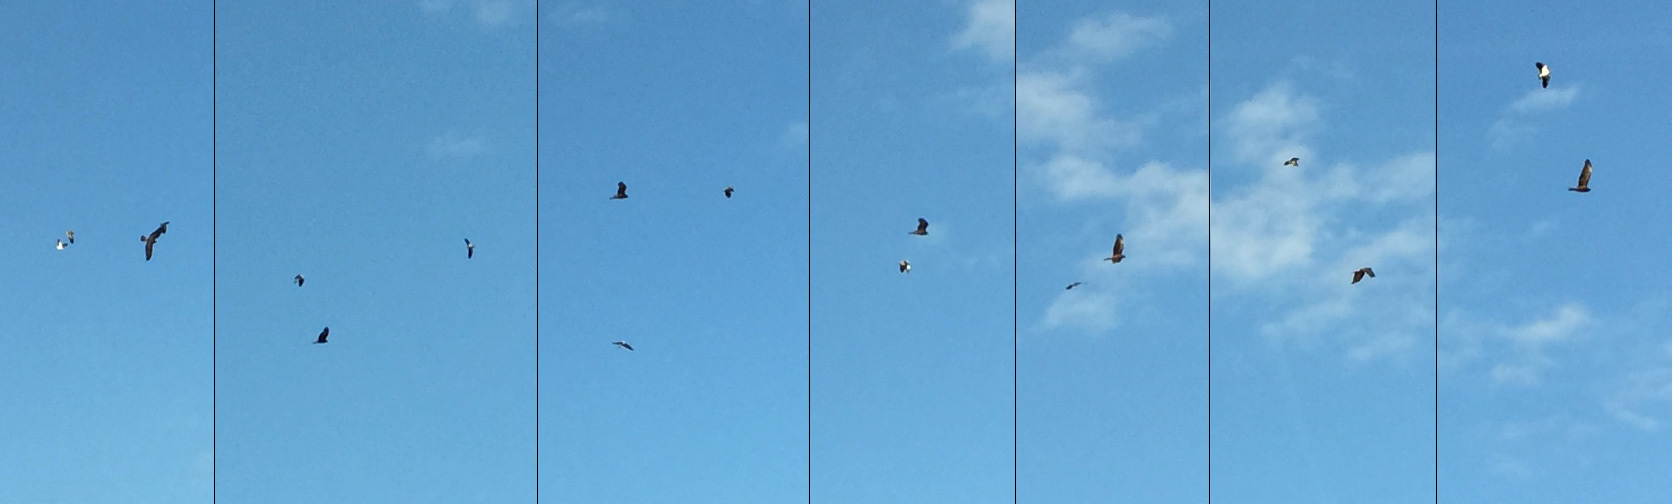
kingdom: Animalia
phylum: Chordata
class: Aves
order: Charadriiformes
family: Charadriidae
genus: Vanellus
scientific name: Vanellus miles
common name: Masked lapwing
